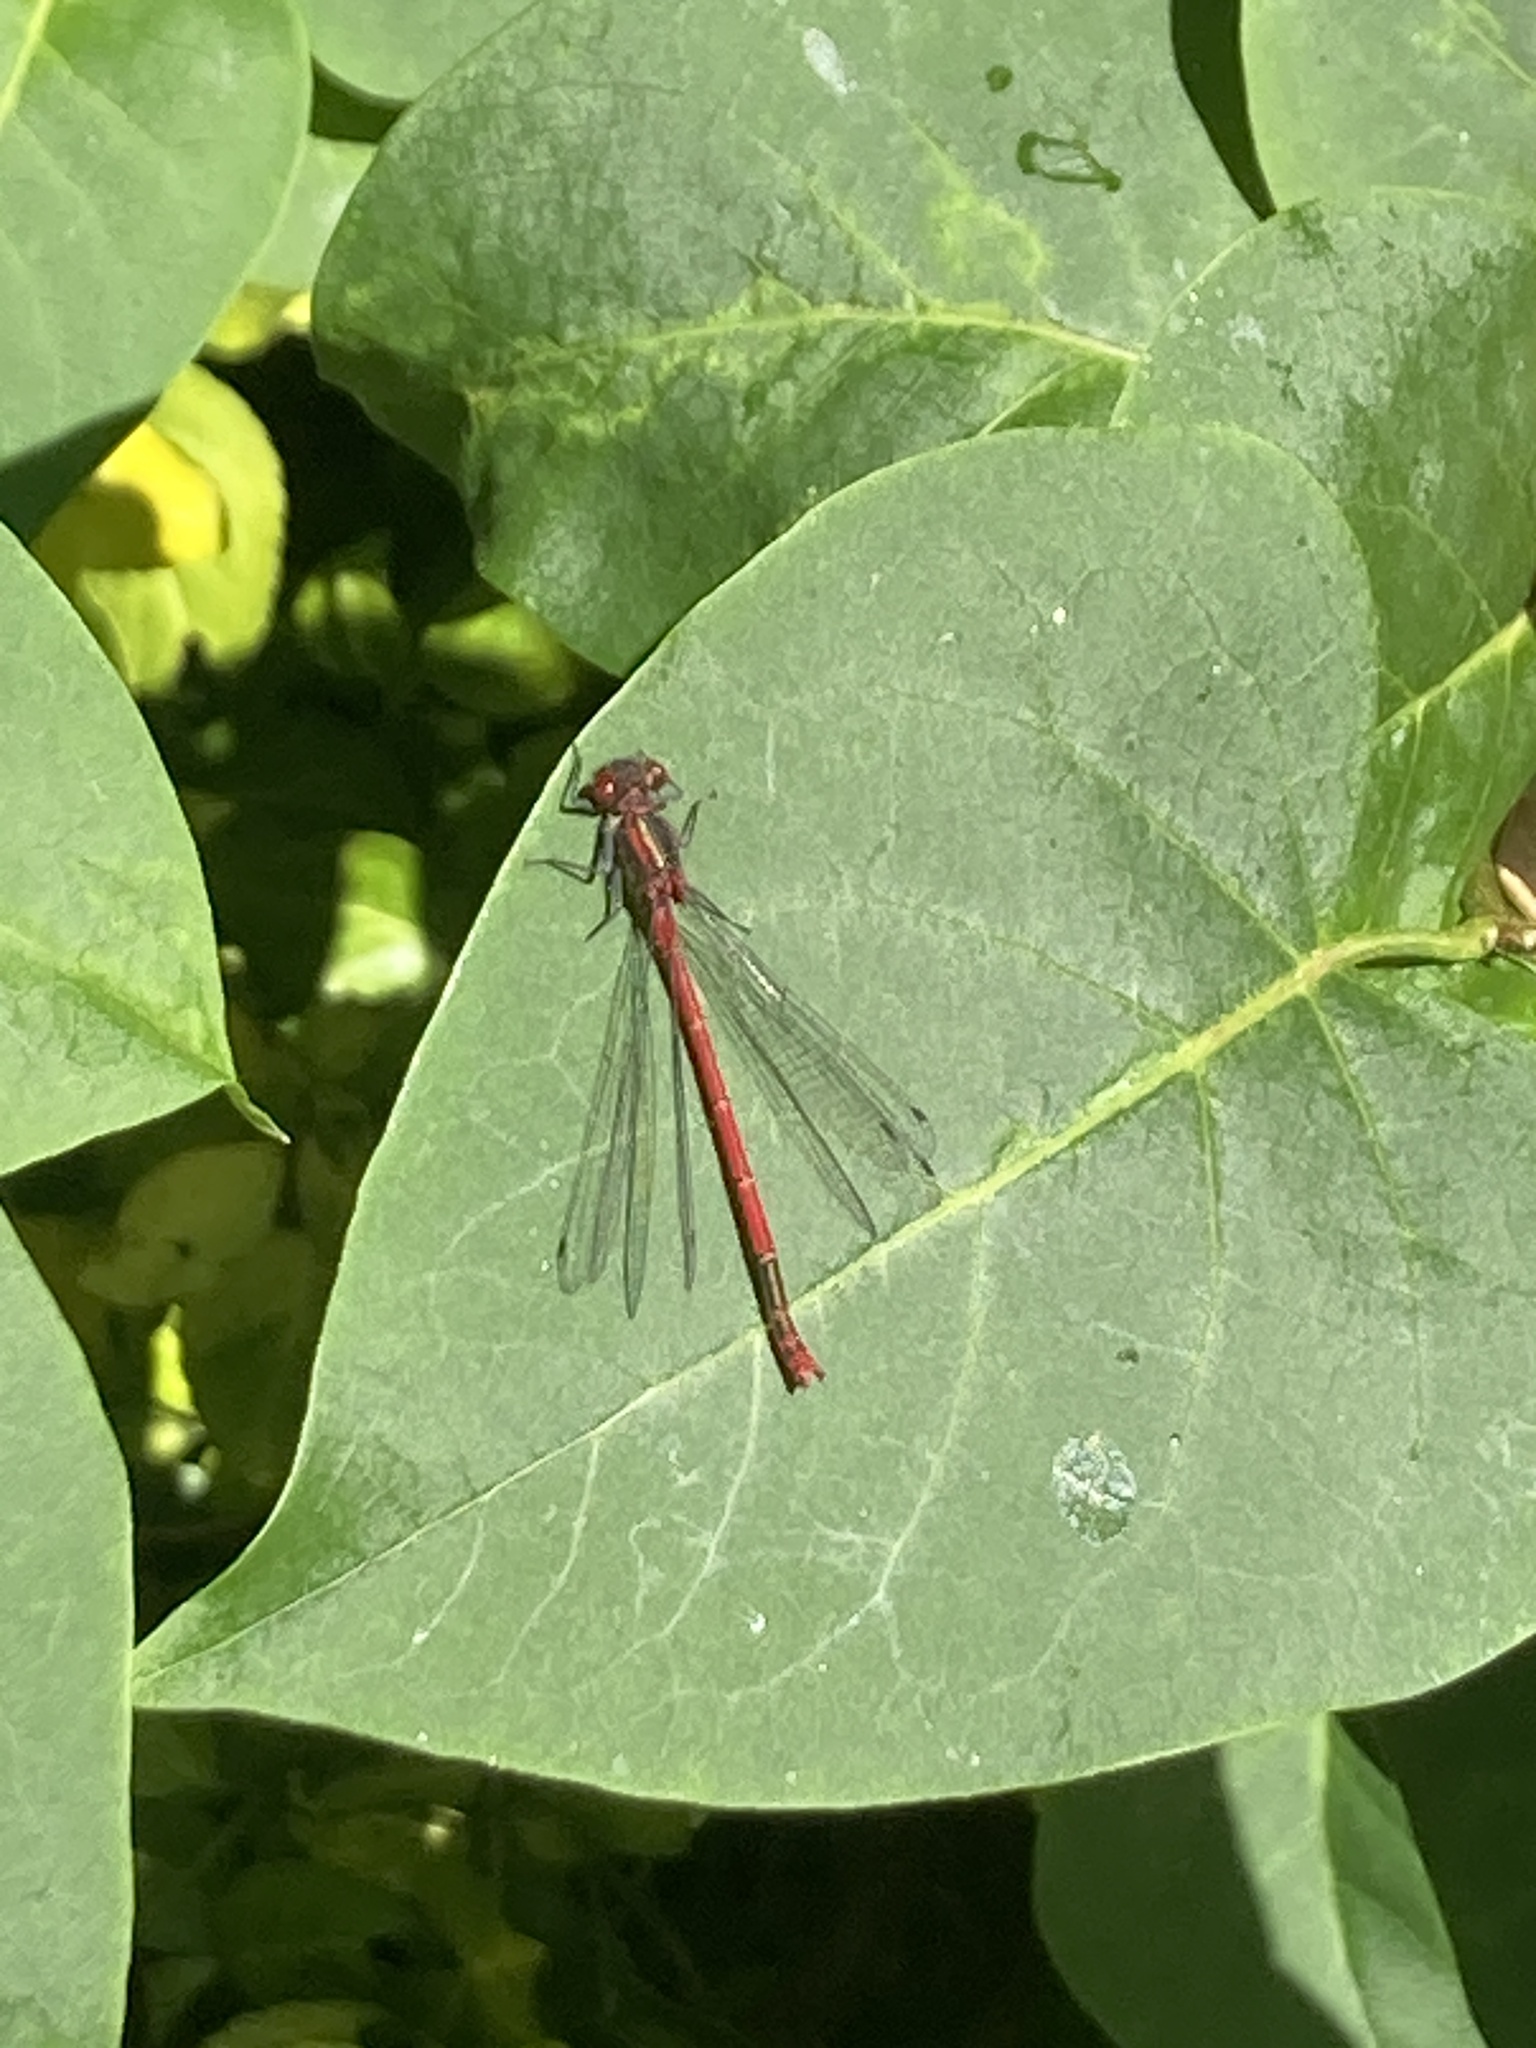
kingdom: Animalia
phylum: Arthropoda
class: Insecta
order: Odonata
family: Coenagrionidae
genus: Pyrrhosoma
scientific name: Pyrrhosoma nymphula
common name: Large red damsel
